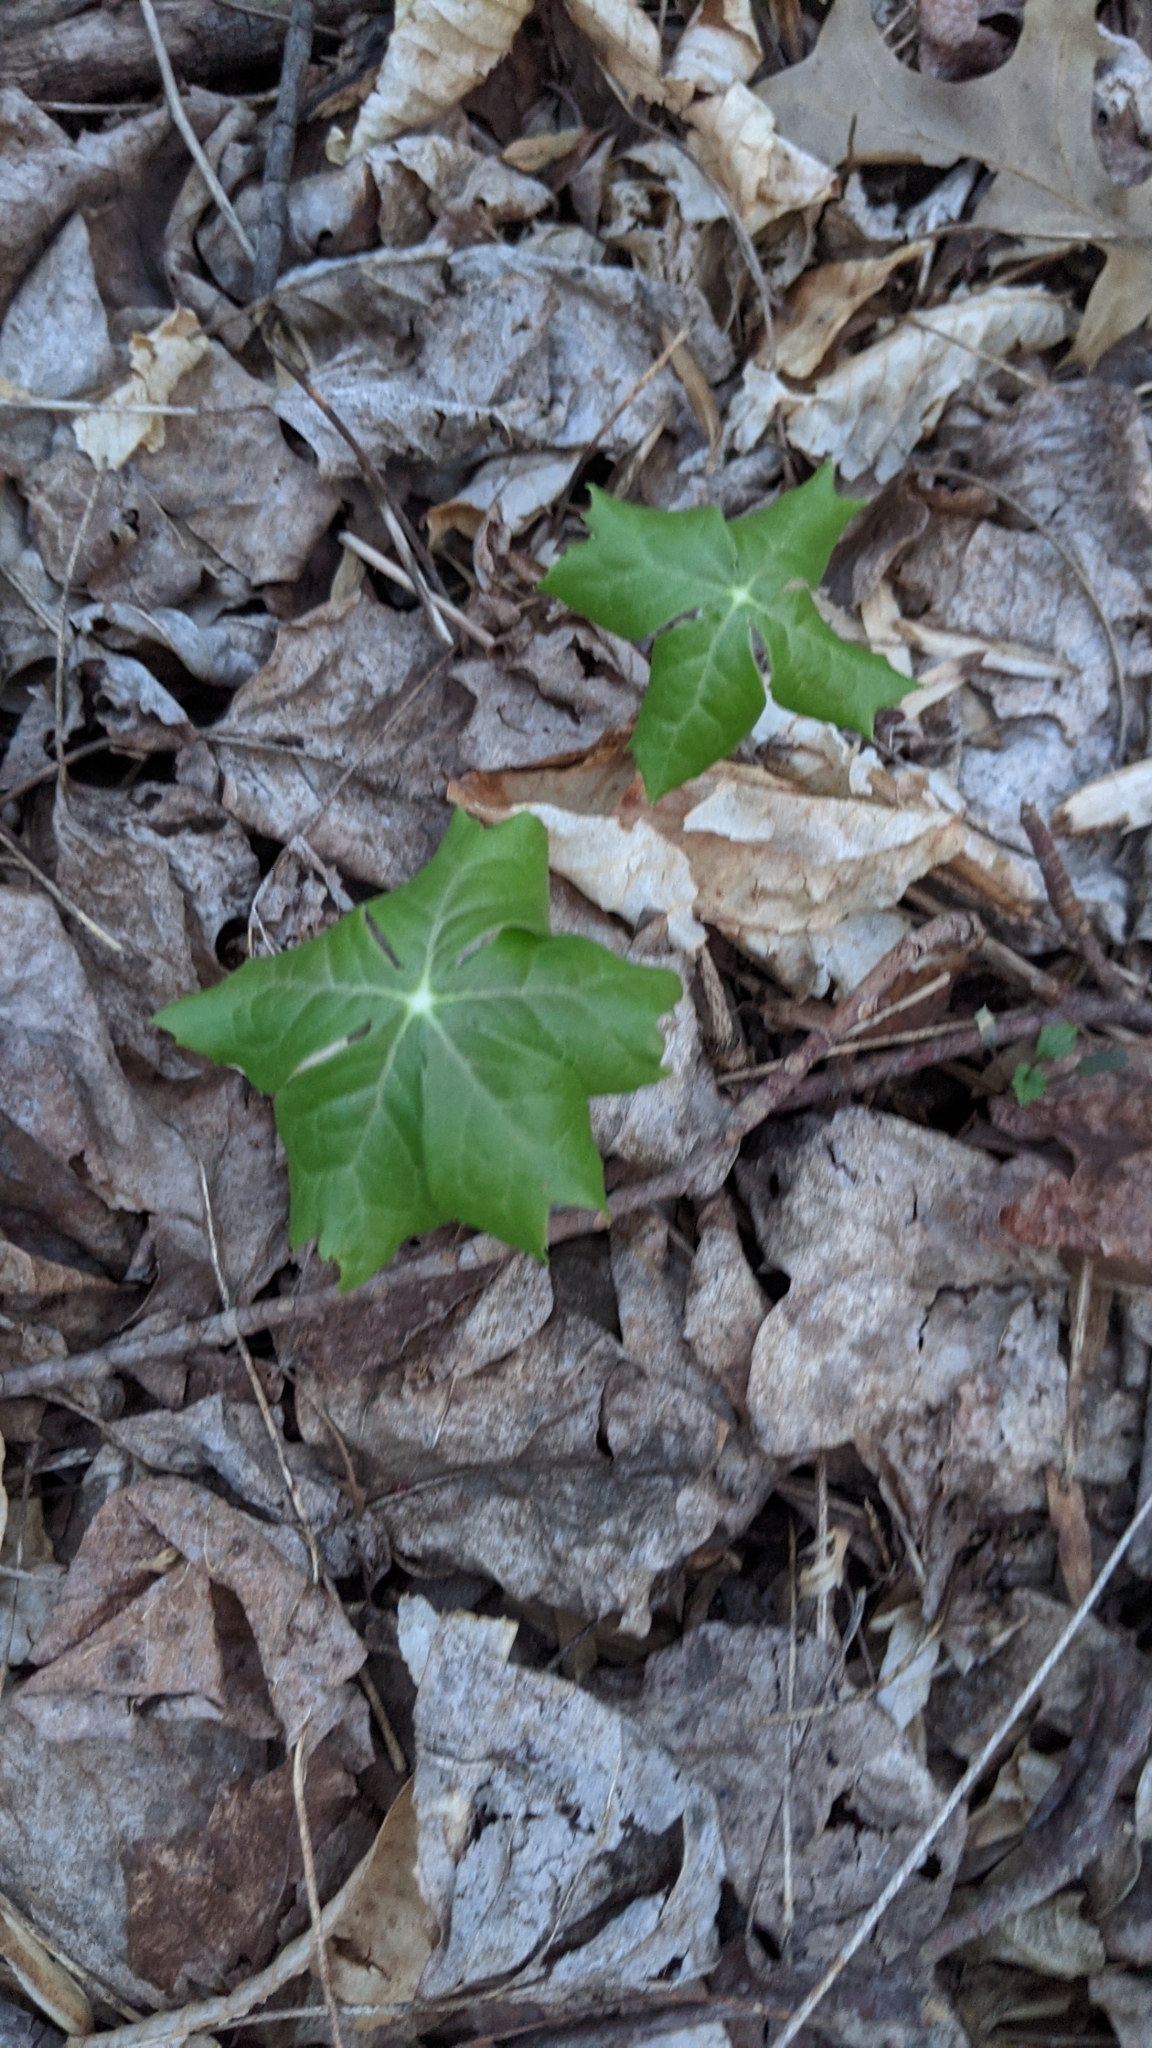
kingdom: Plantae
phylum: Tracheophyta
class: Magnoliopsida
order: Ranunculales
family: Berberidaceae
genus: Podophyllum
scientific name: Podophyllum peltatum
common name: Wild mandrake
